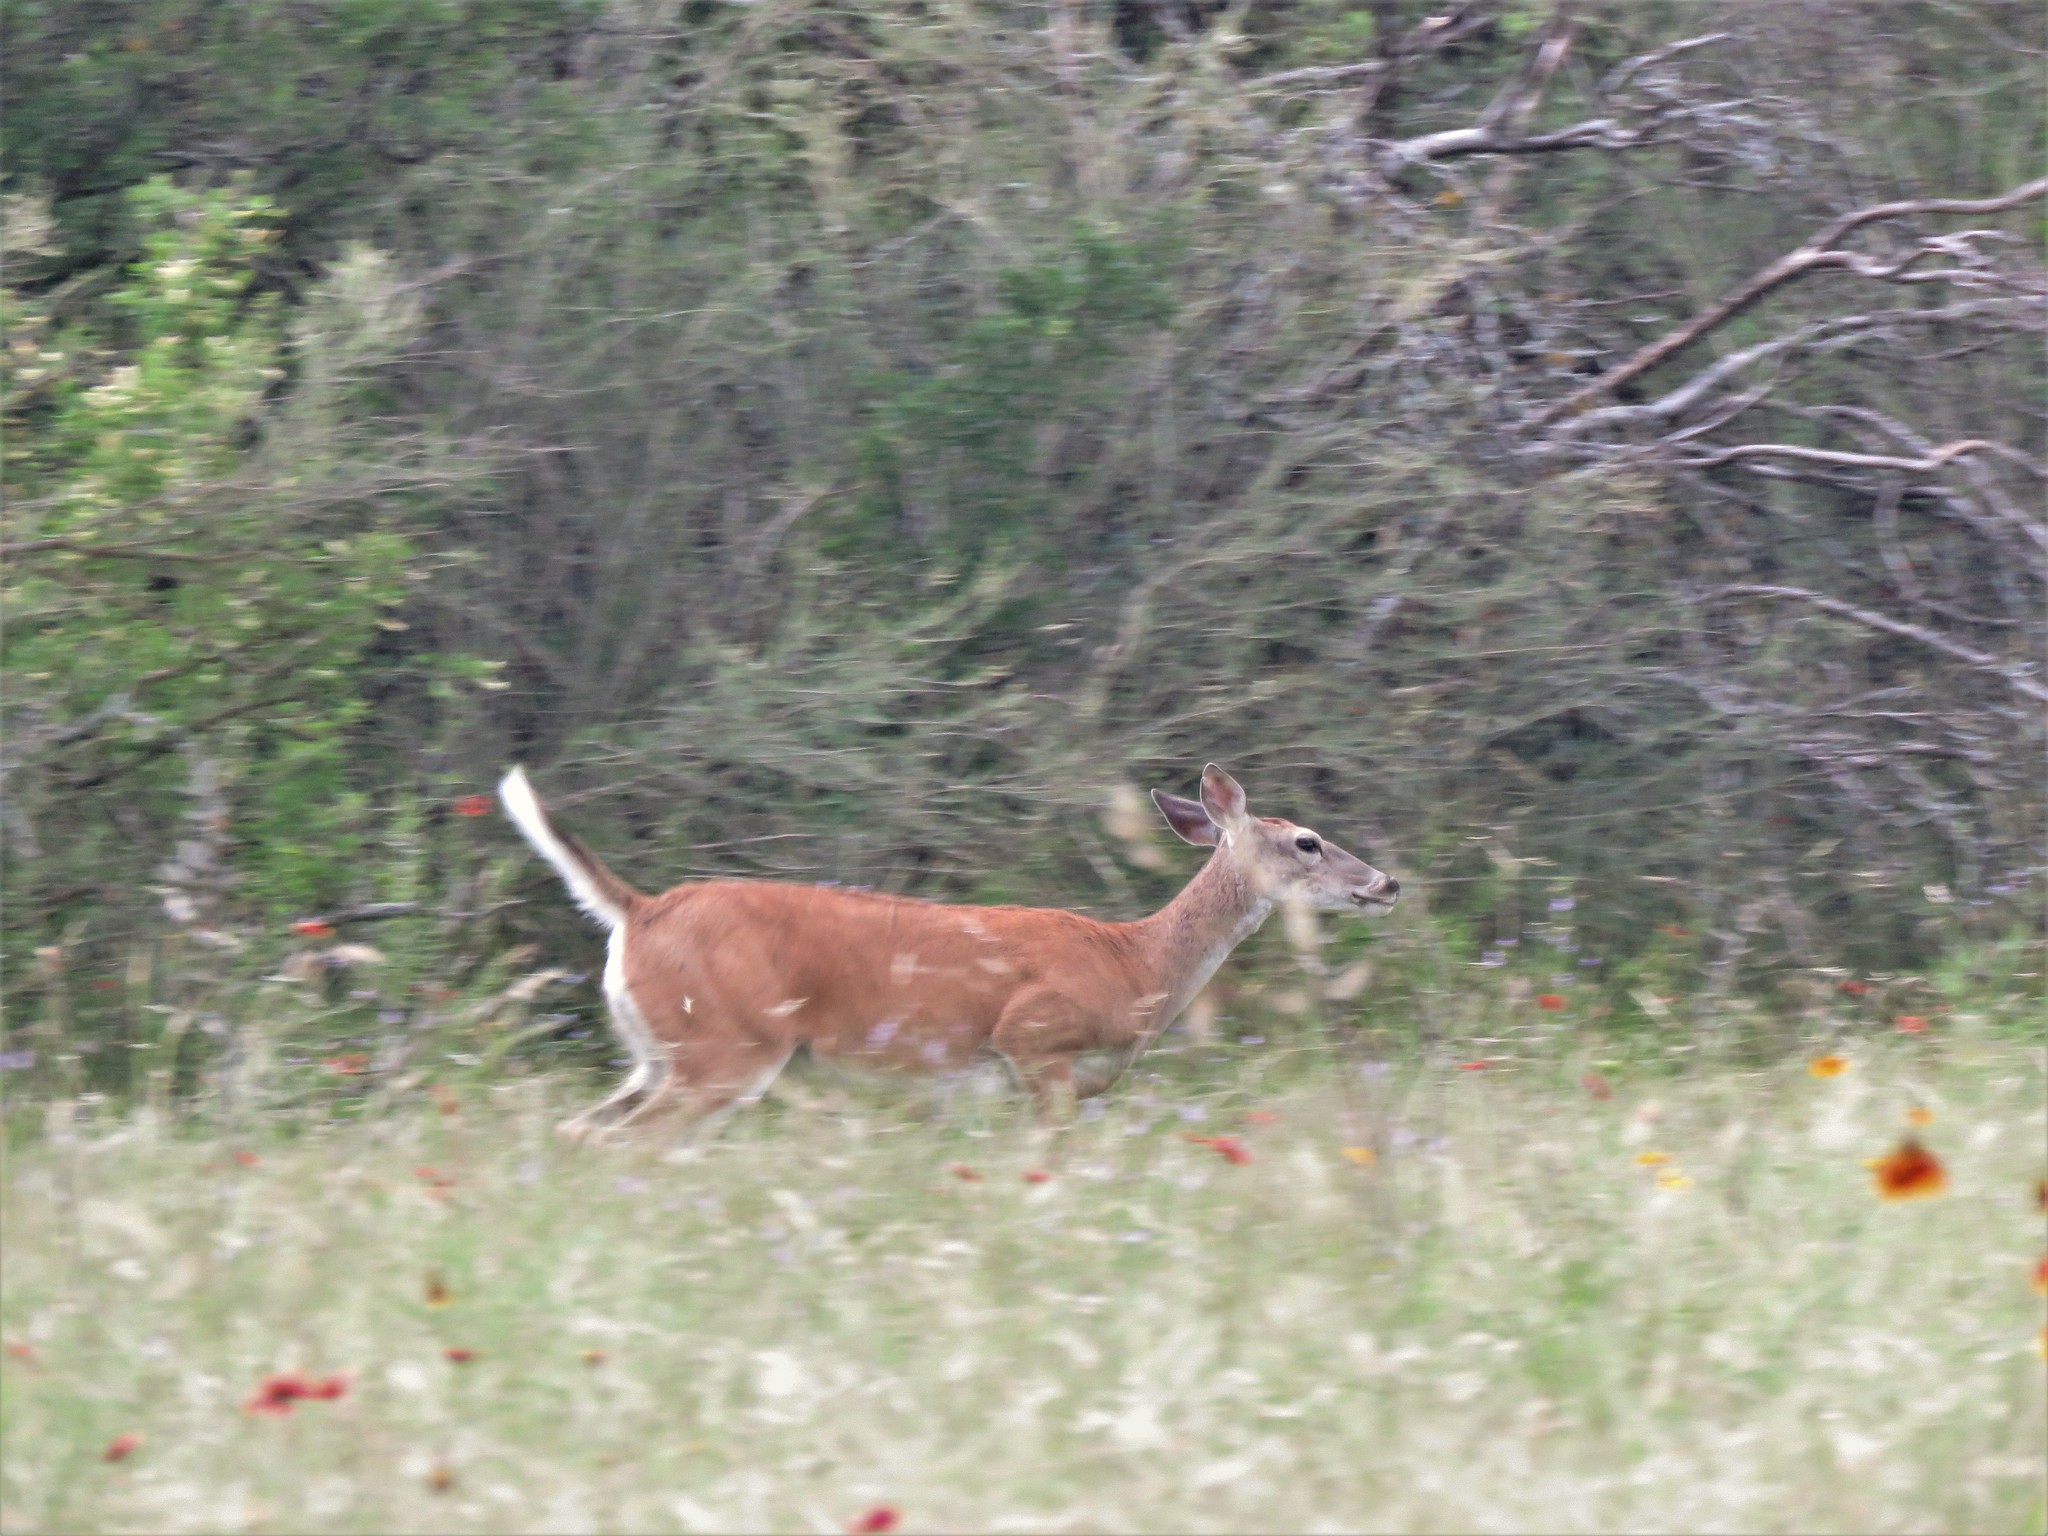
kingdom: Animalia
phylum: Chordata
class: Mammalia
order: Artiodactyla
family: Cervidae
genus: Odocoileus
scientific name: Odocoileus virginianus
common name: White-tailed deer
